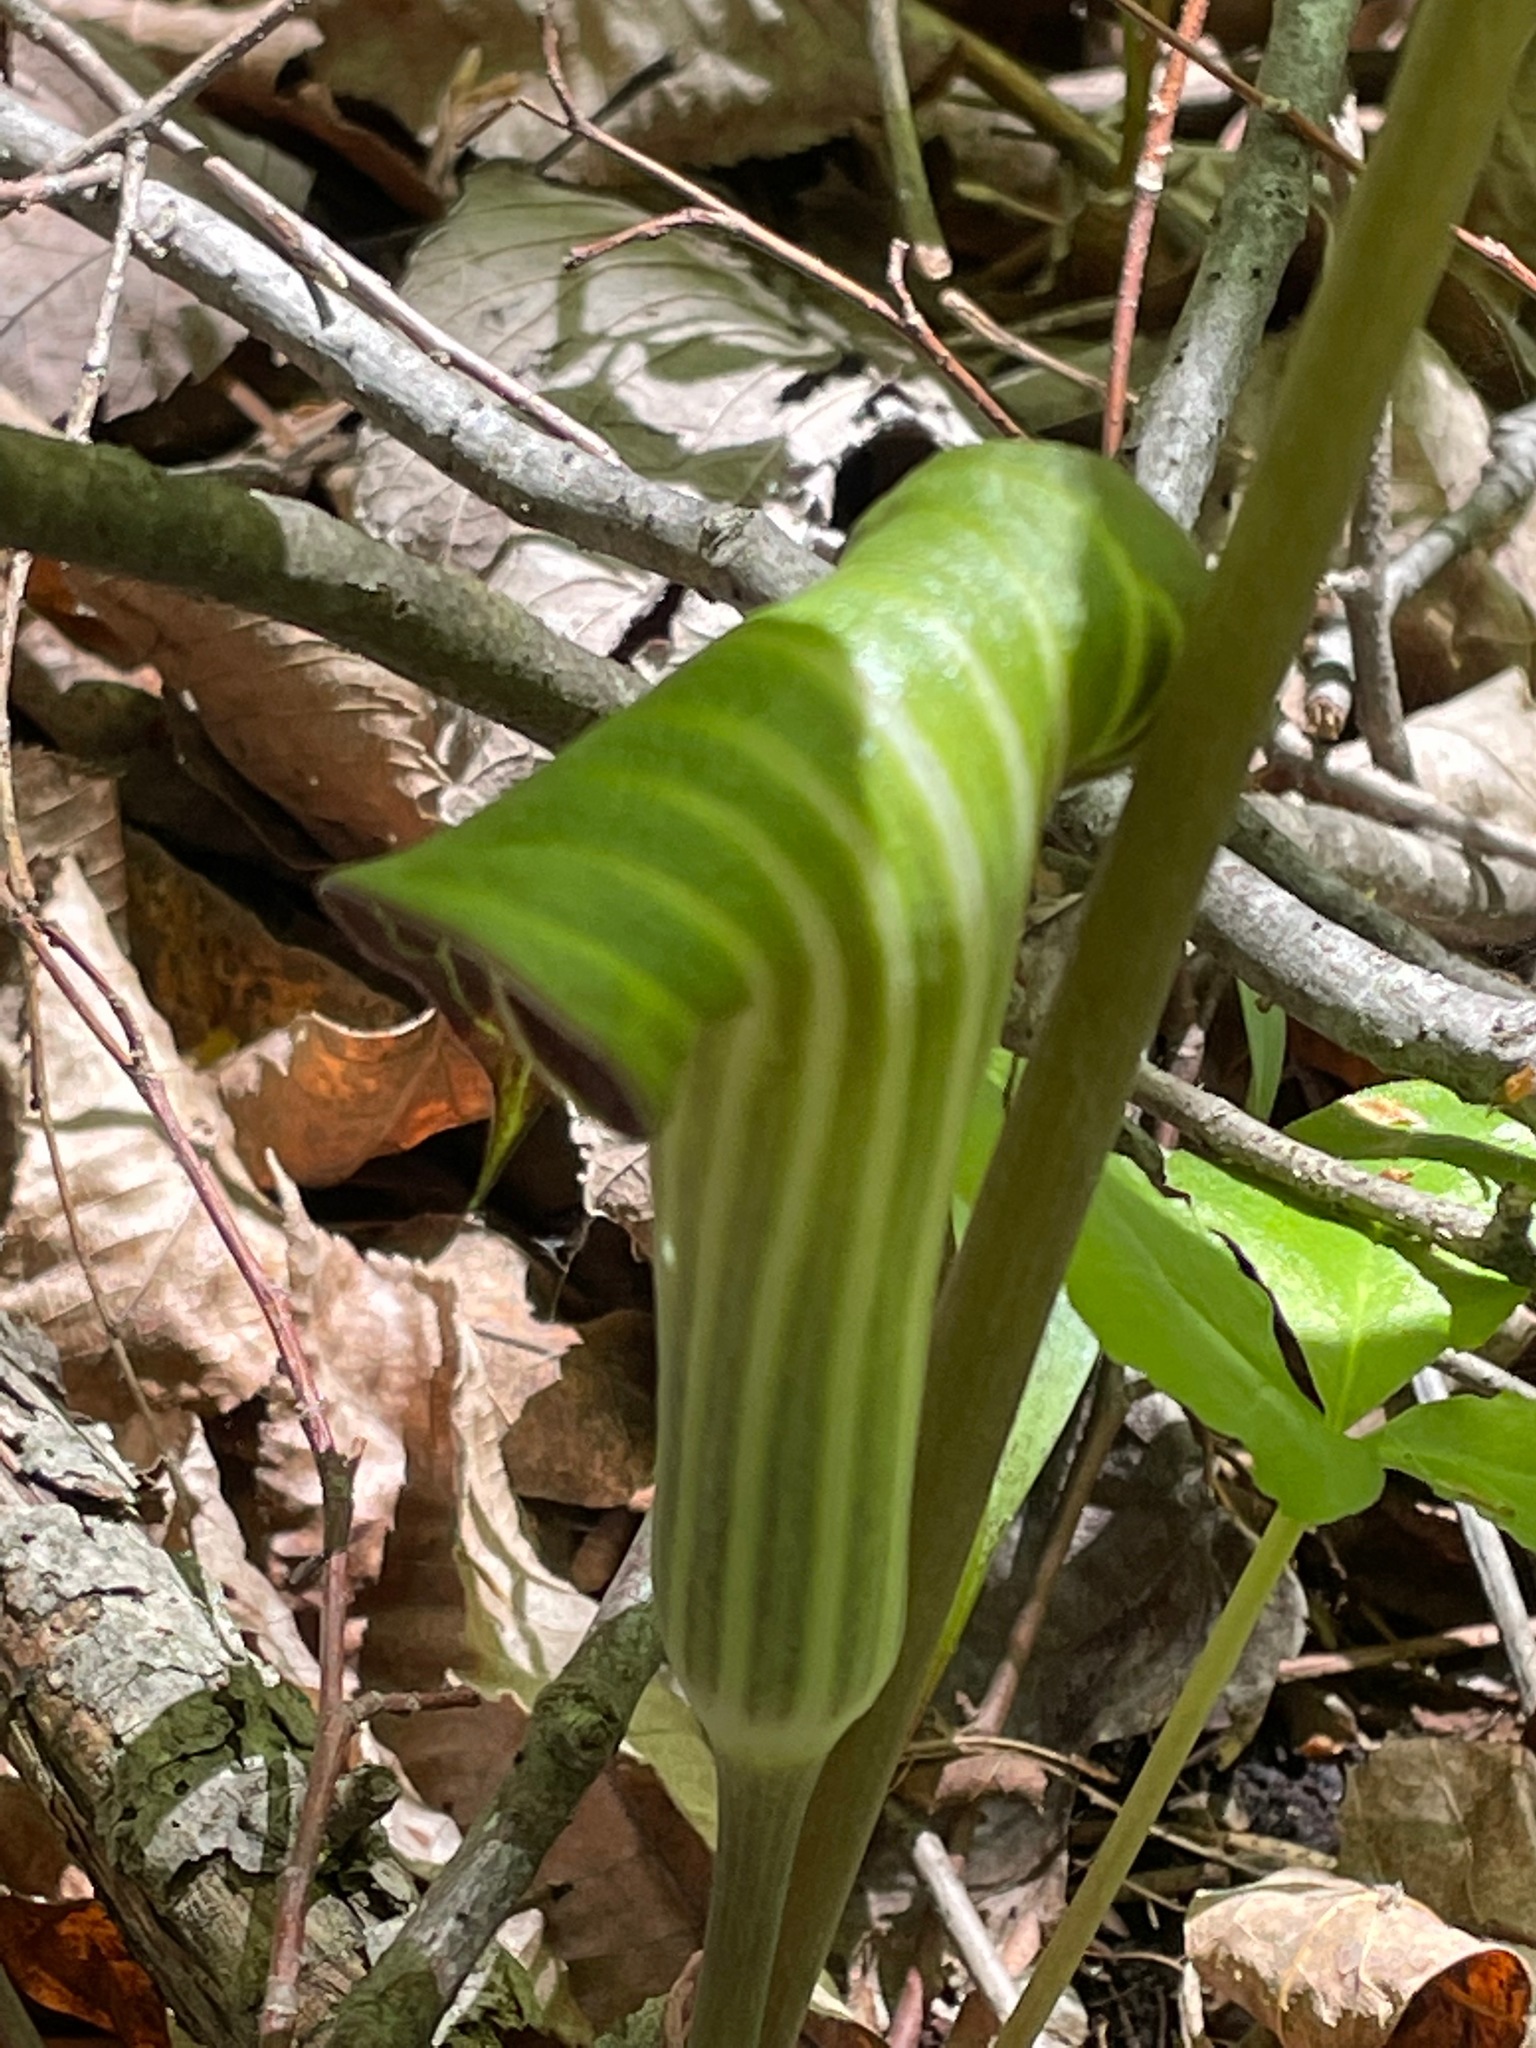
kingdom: Plantae
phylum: Tracheophyta
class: Liliopsida
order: Alismatales
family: Araceae
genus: Arisaema
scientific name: Arisaema triphyllum
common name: Jack-in-the-pulpit
